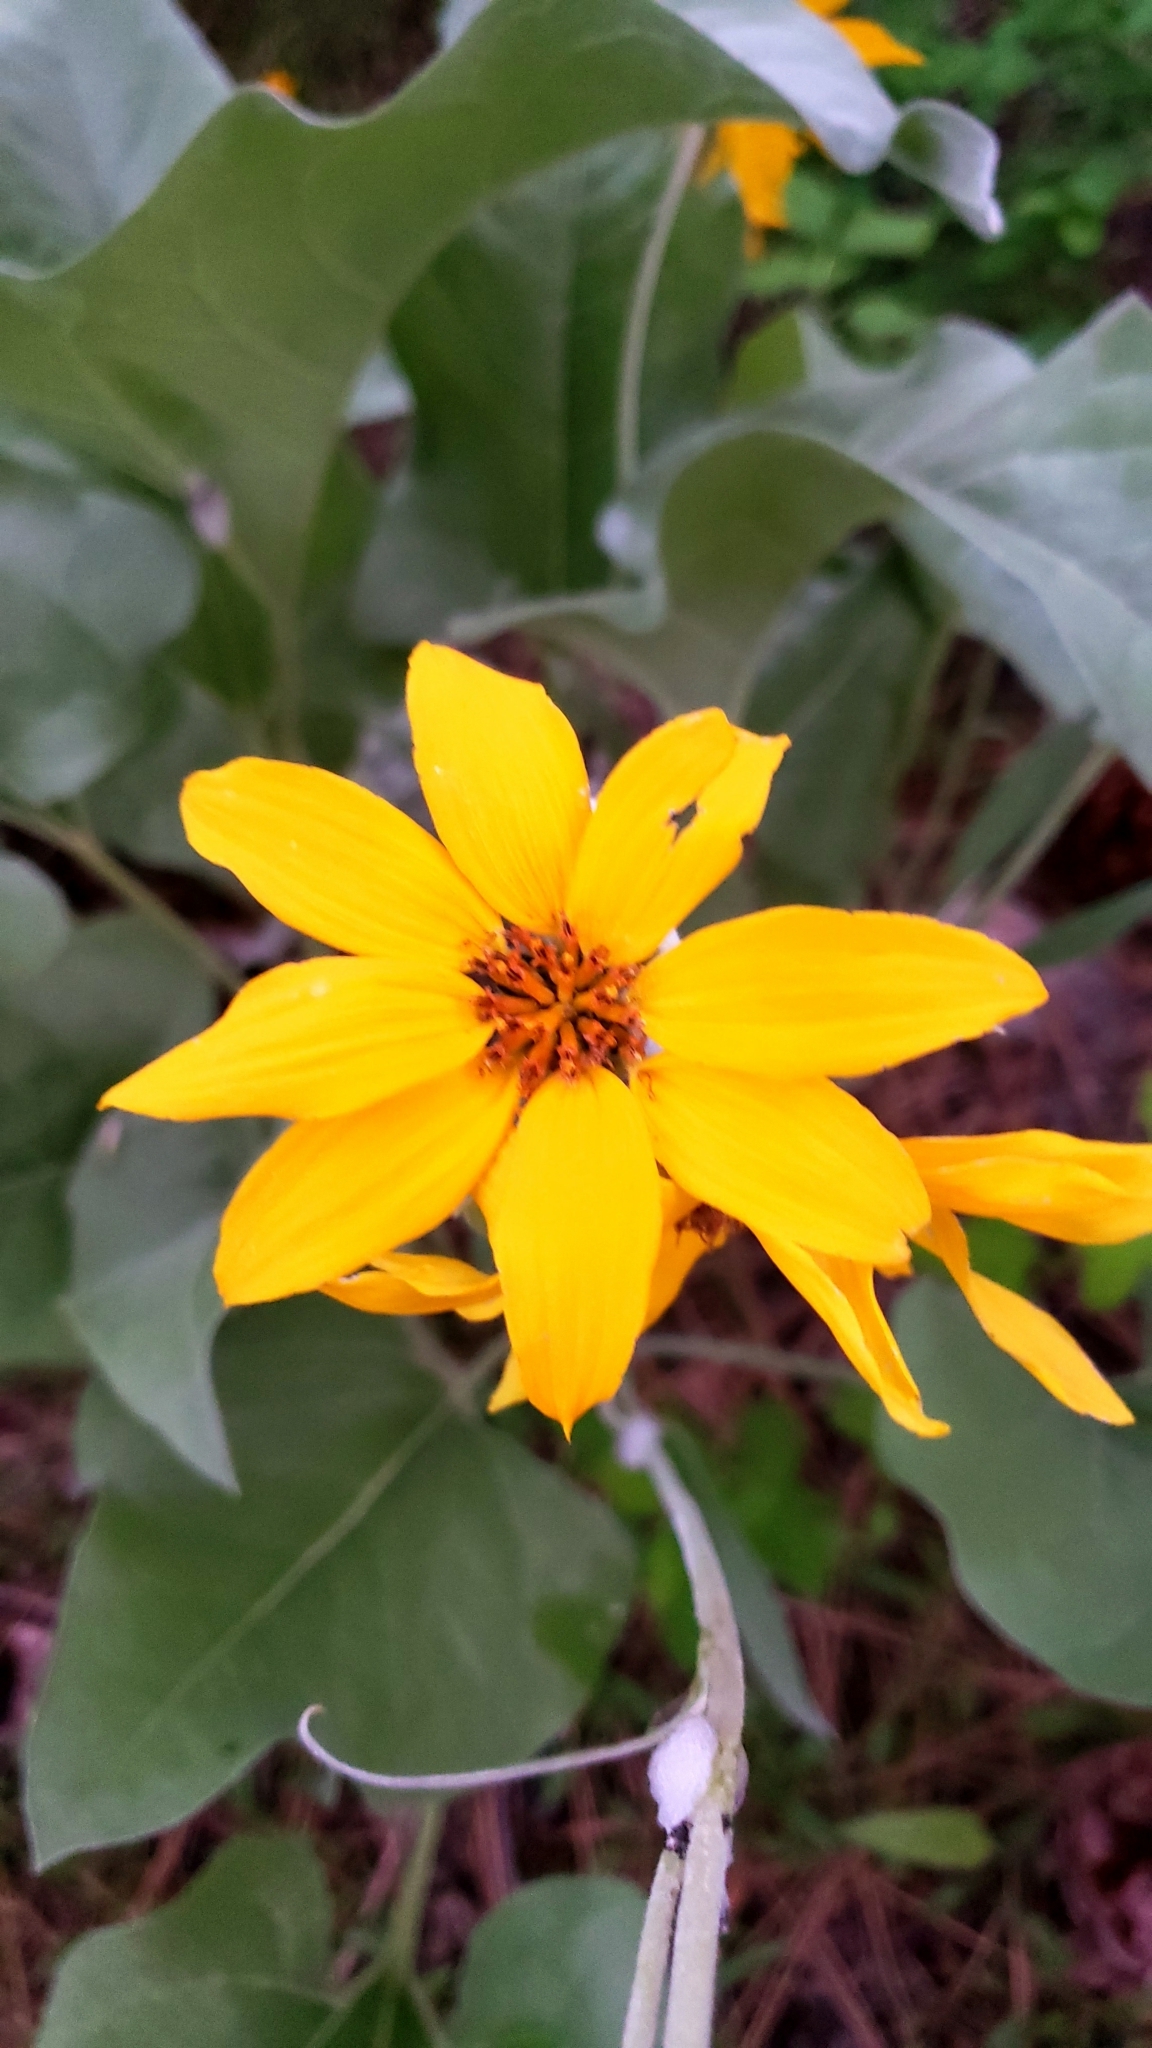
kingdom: Plantae
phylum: Tracheophyta
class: Magnoliopsida
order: Asterales
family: Asteraceae
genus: Wyethia
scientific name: Wyethia sagittata
